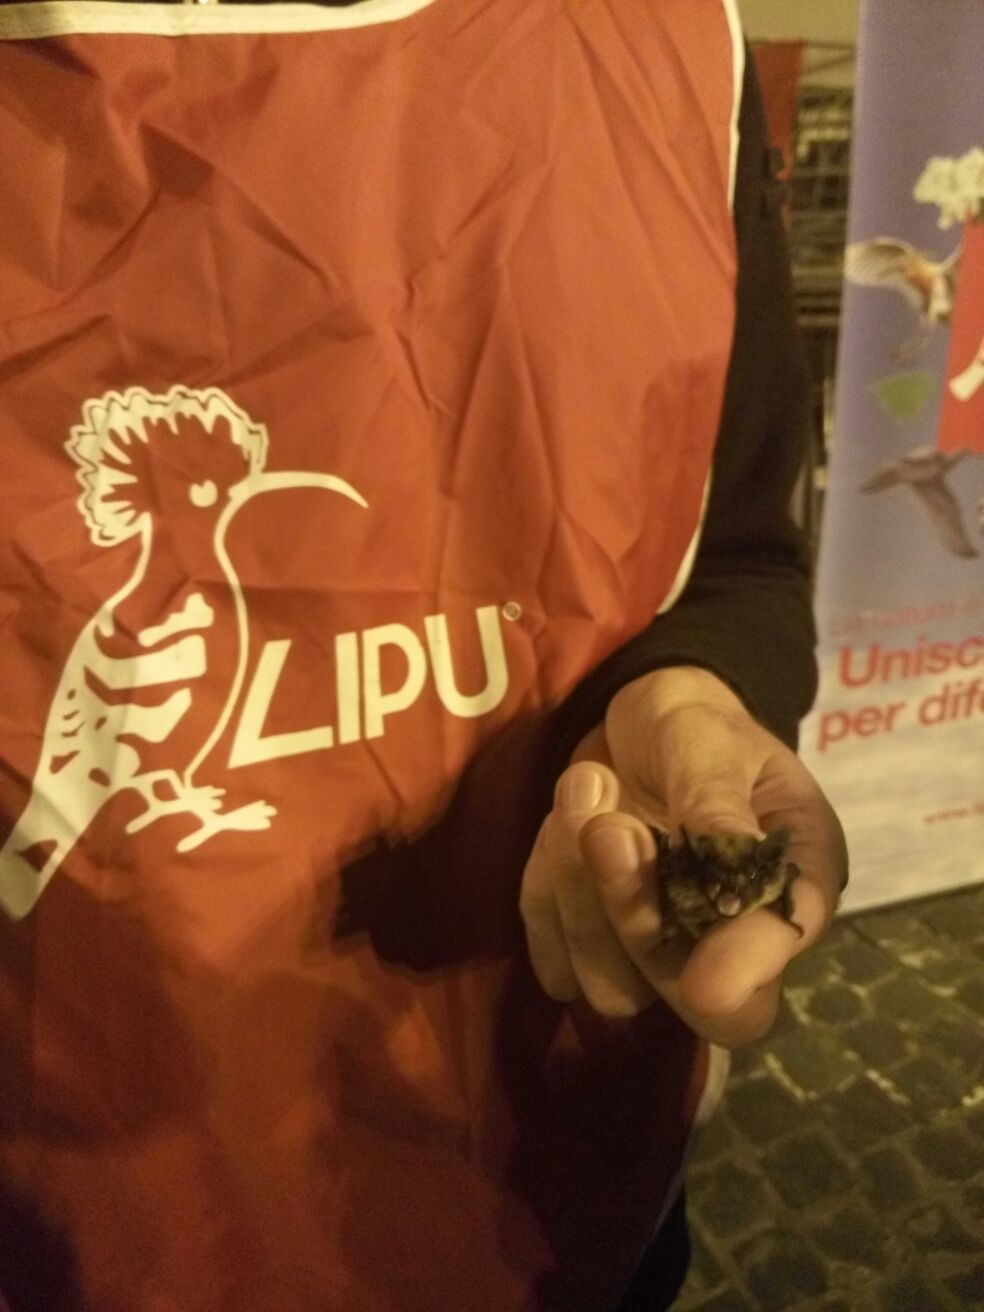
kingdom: Animalia
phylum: Chordata
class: Mammalia
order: Chiroptera
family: Vespertilionidae
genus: Hypsugo
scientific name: Hypsugo savii
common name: Savi's pipistrelle
